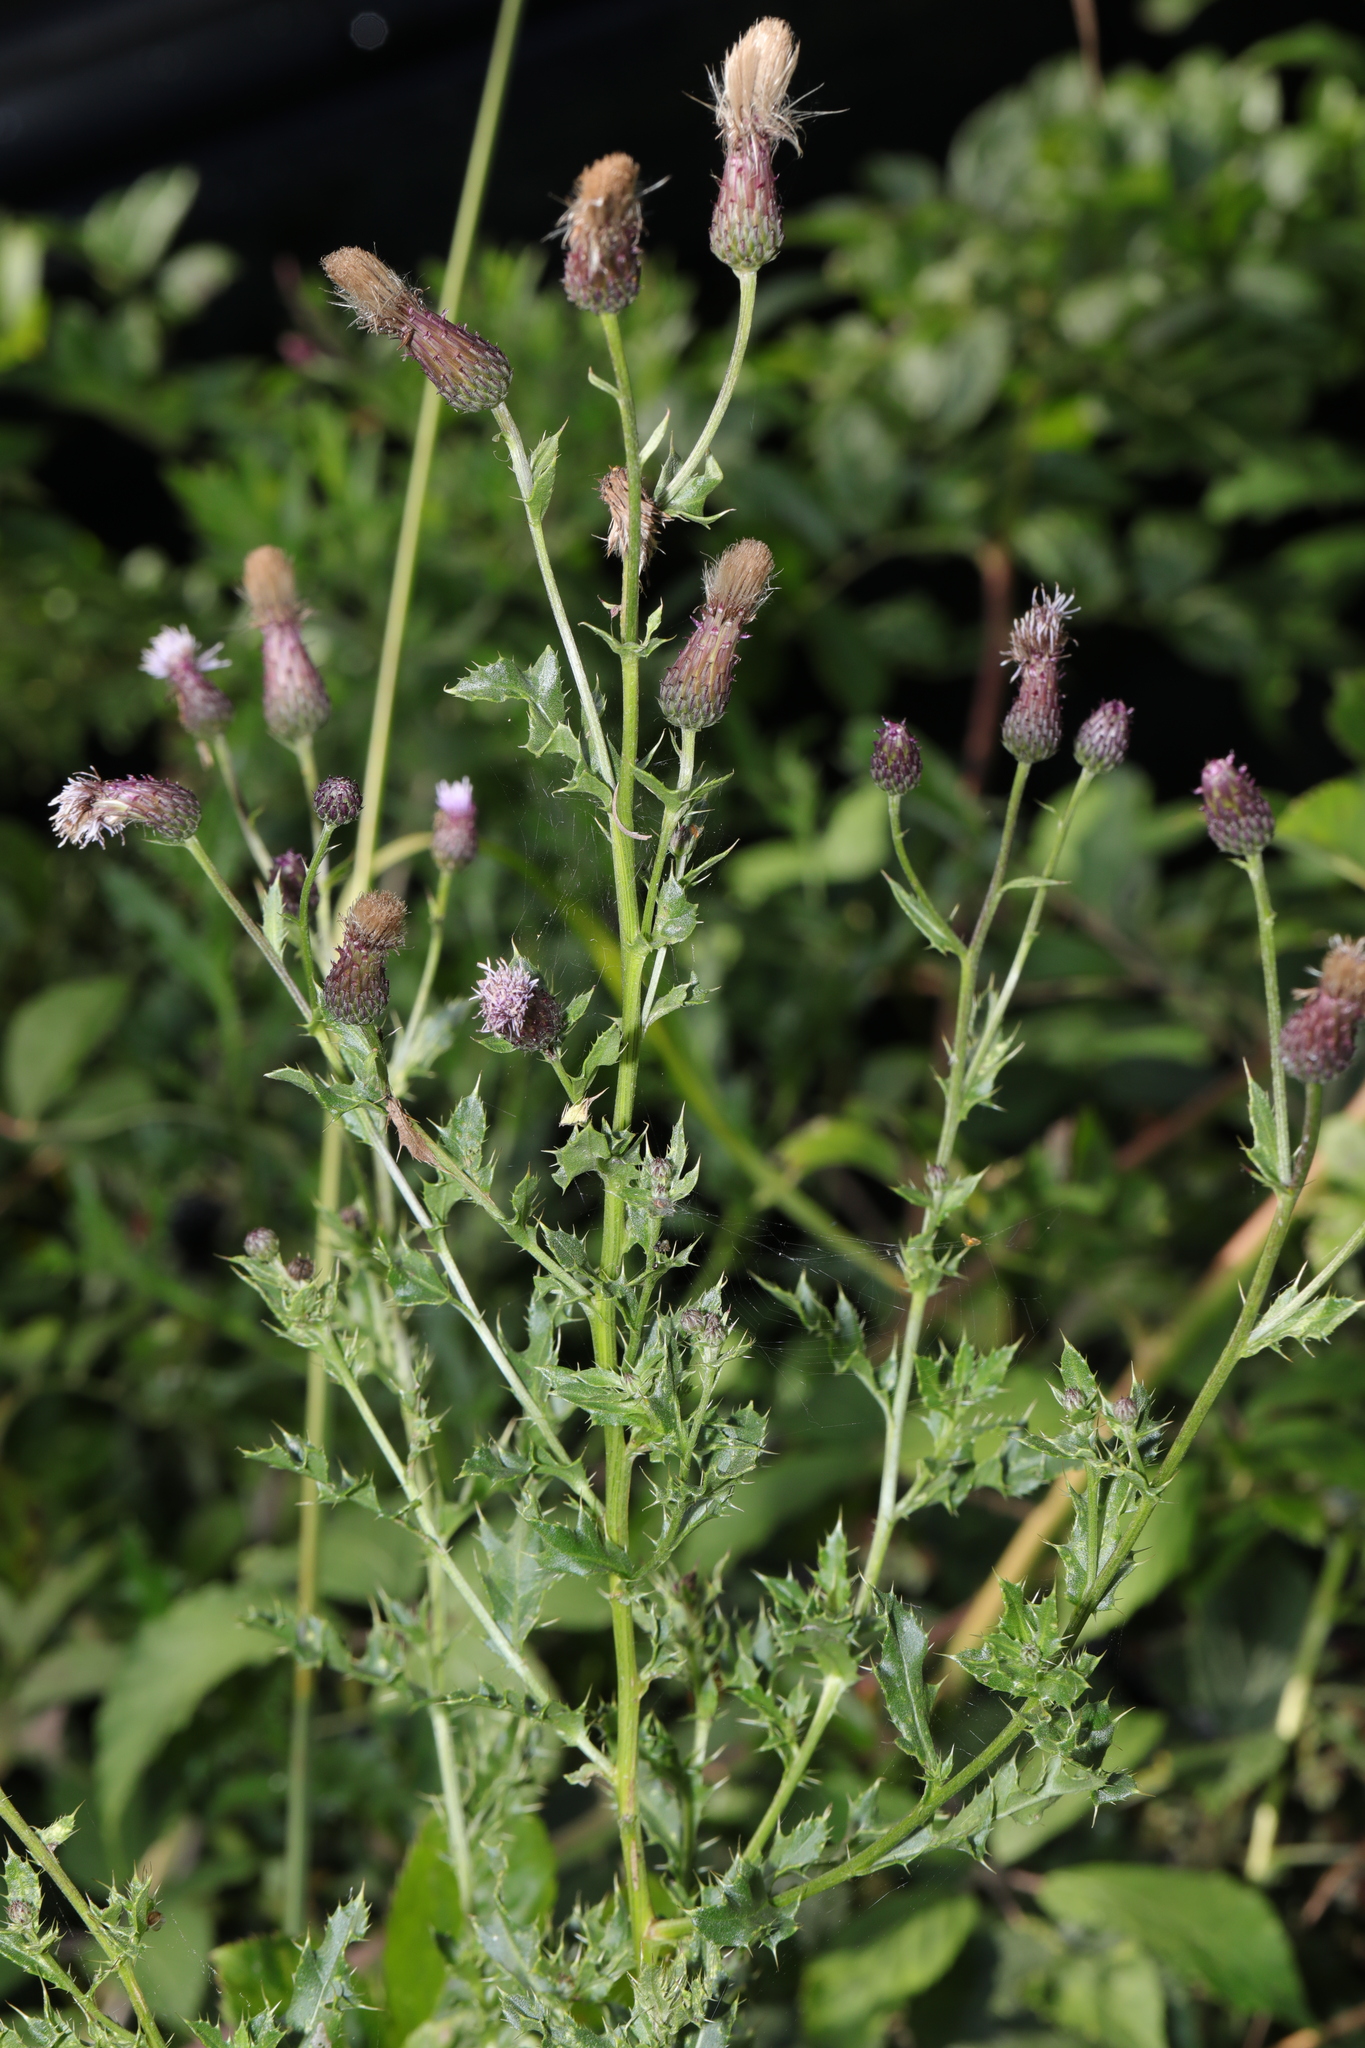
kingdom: Plantae
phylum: Tracheophyta
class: Magnoliopsida
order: Asterales
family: Asteraceae
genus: Cirsium
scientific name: Cirsium arvense
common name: Creeping thistle
